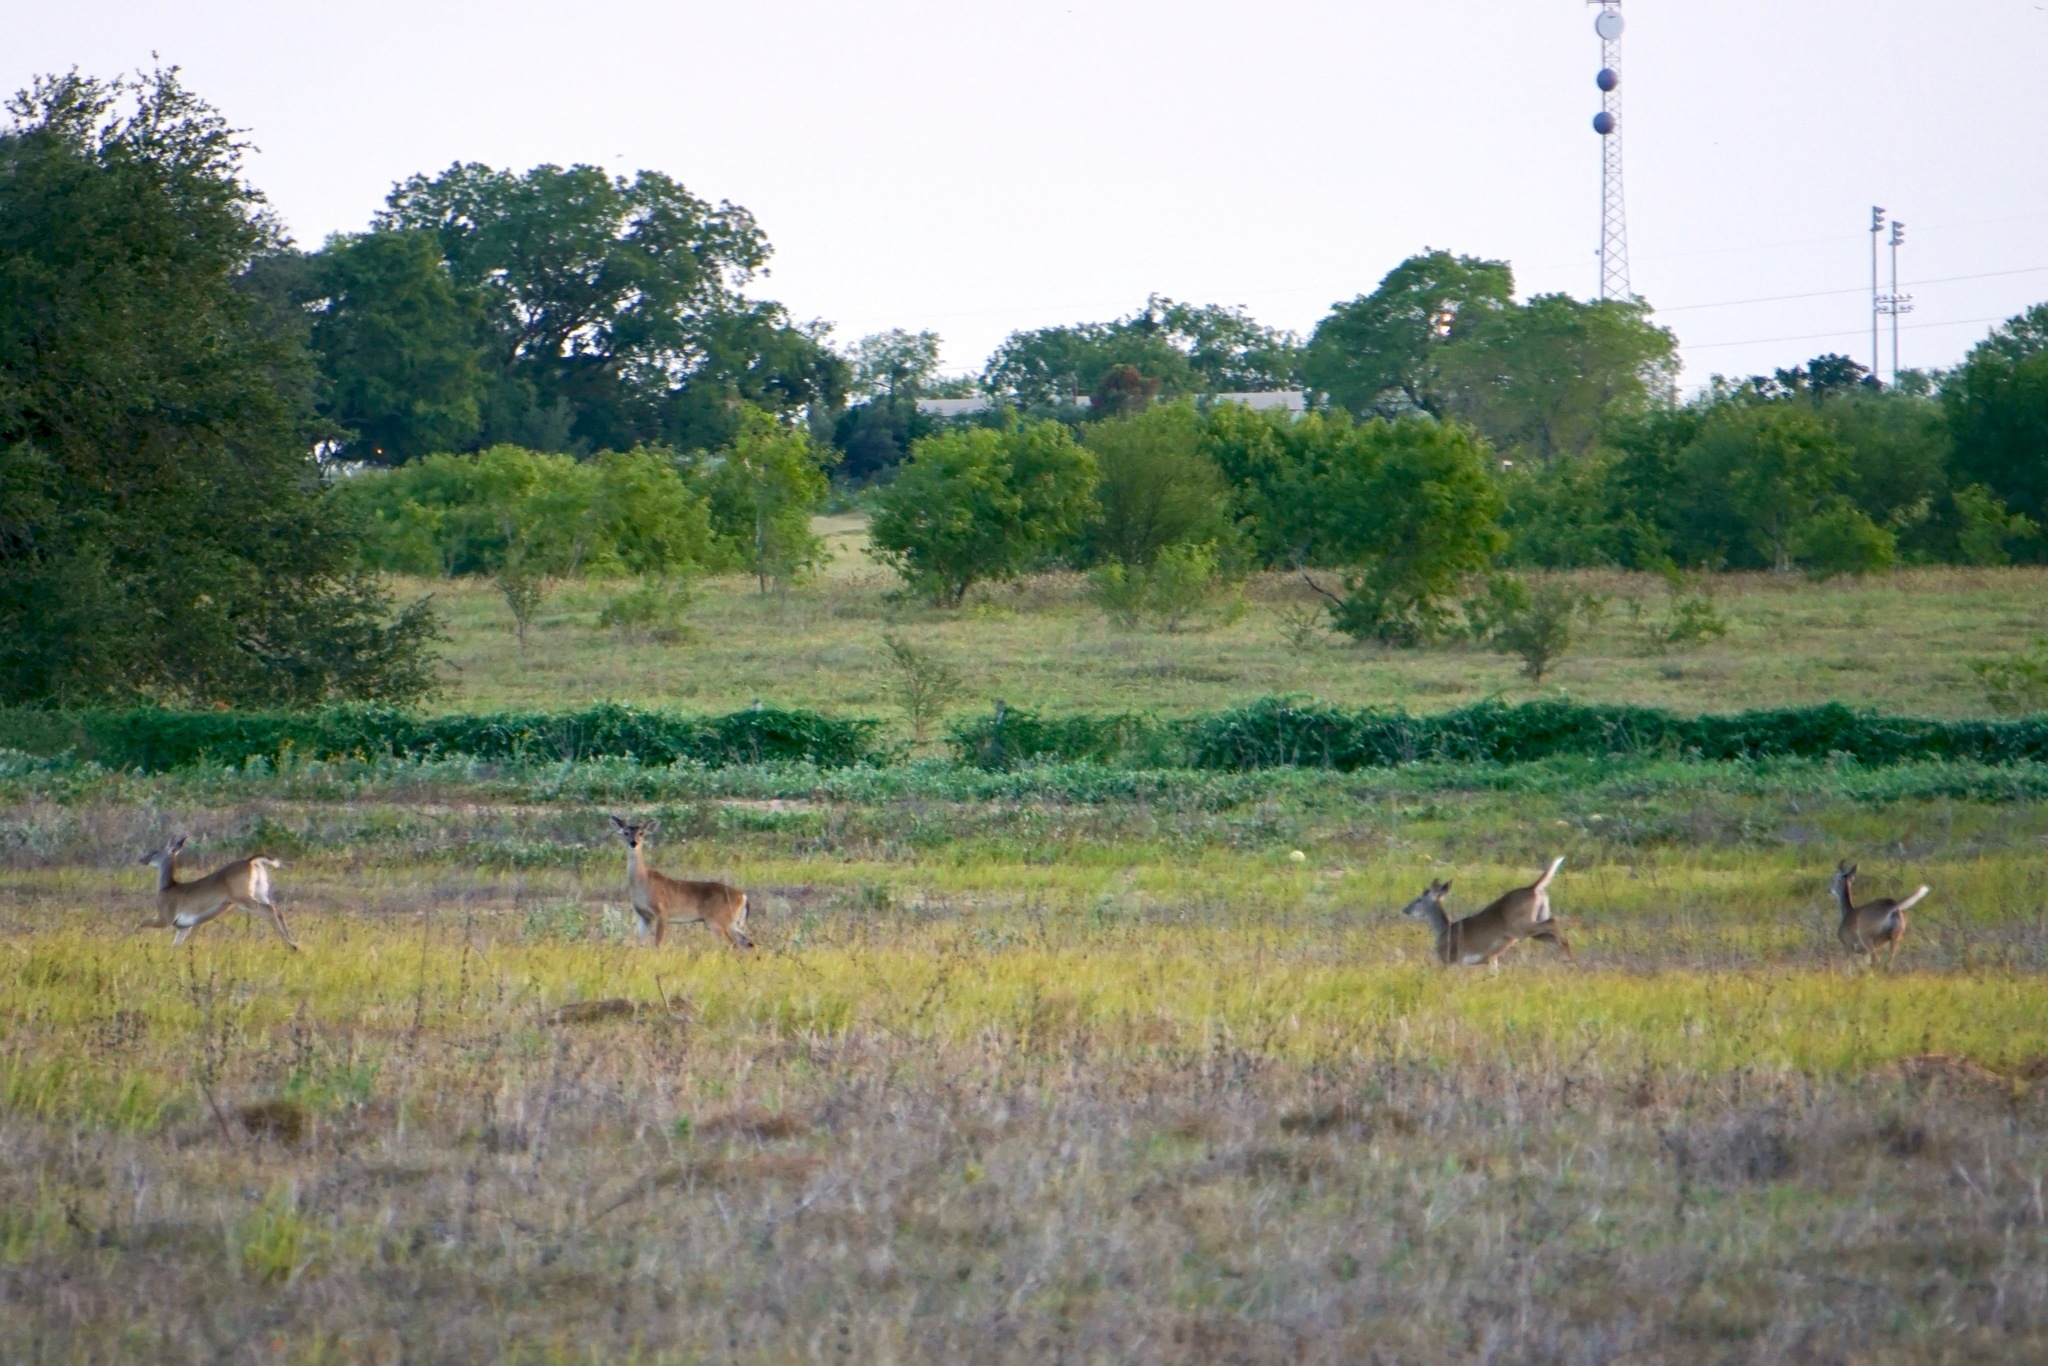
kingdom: Animalia
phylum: Chordata
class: Mammalia
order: Artiodactyla
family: Cervidae
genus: Odocoileus
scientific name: Odocoileus virginianus
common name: White-tailed deer
